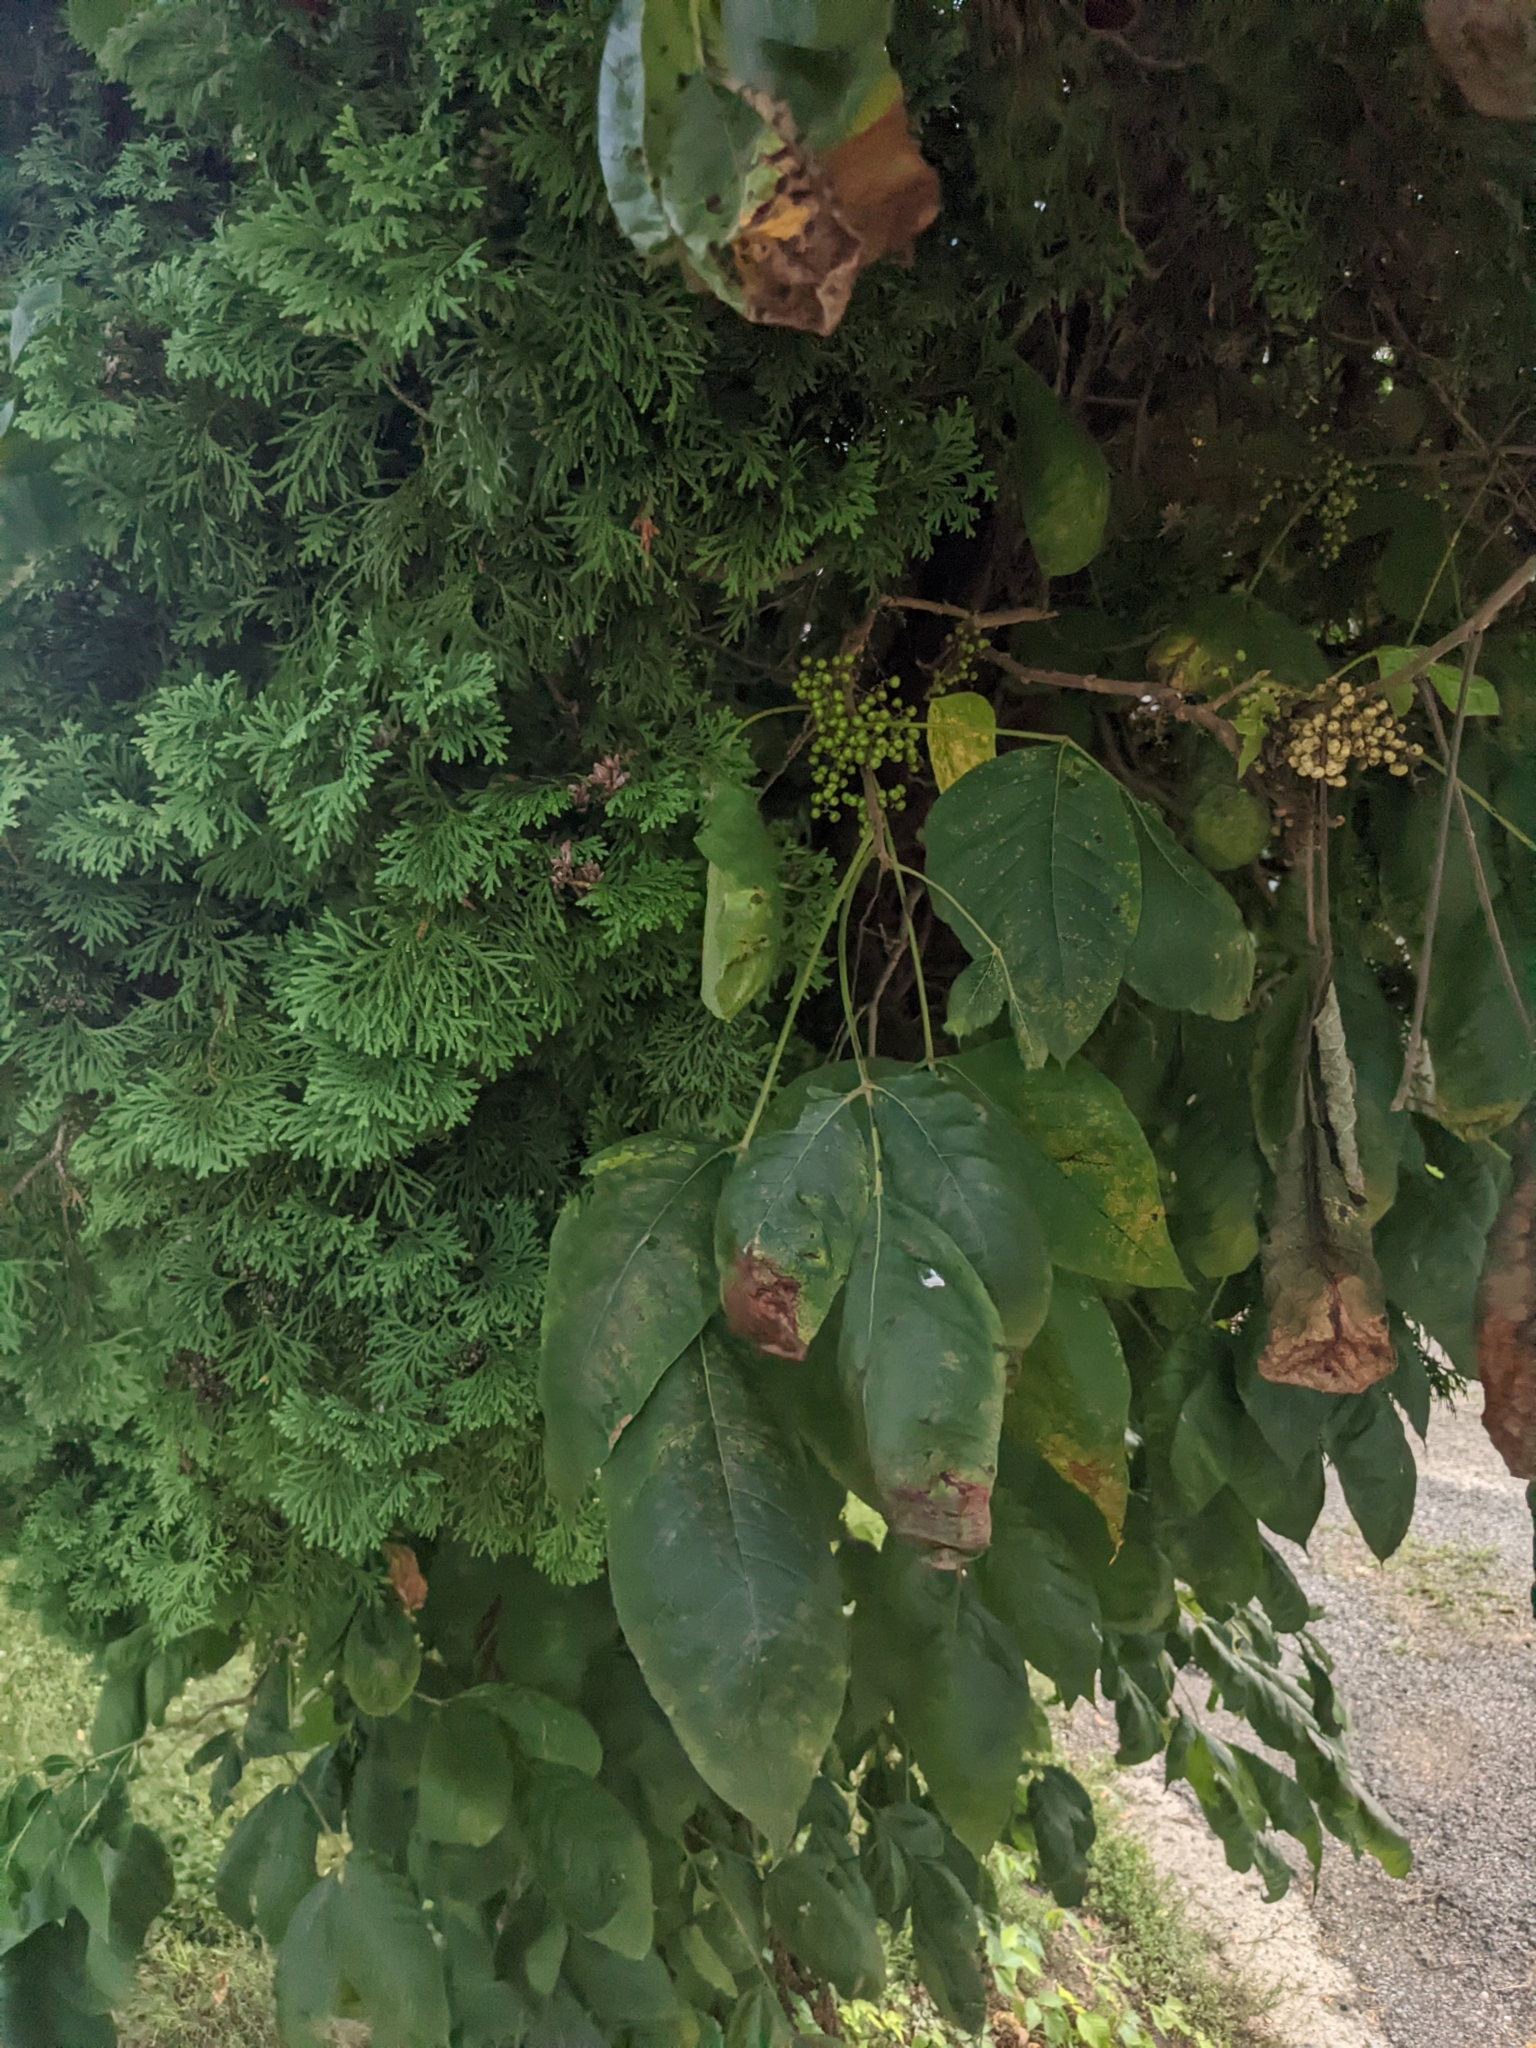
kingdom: Plantae
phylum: Tracheophyta
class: Magnoliopsida
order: Sapindales
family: Anacardiaceae
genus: Toxicodendron
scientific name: Toxicodendron radicans
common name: Poison ivy
